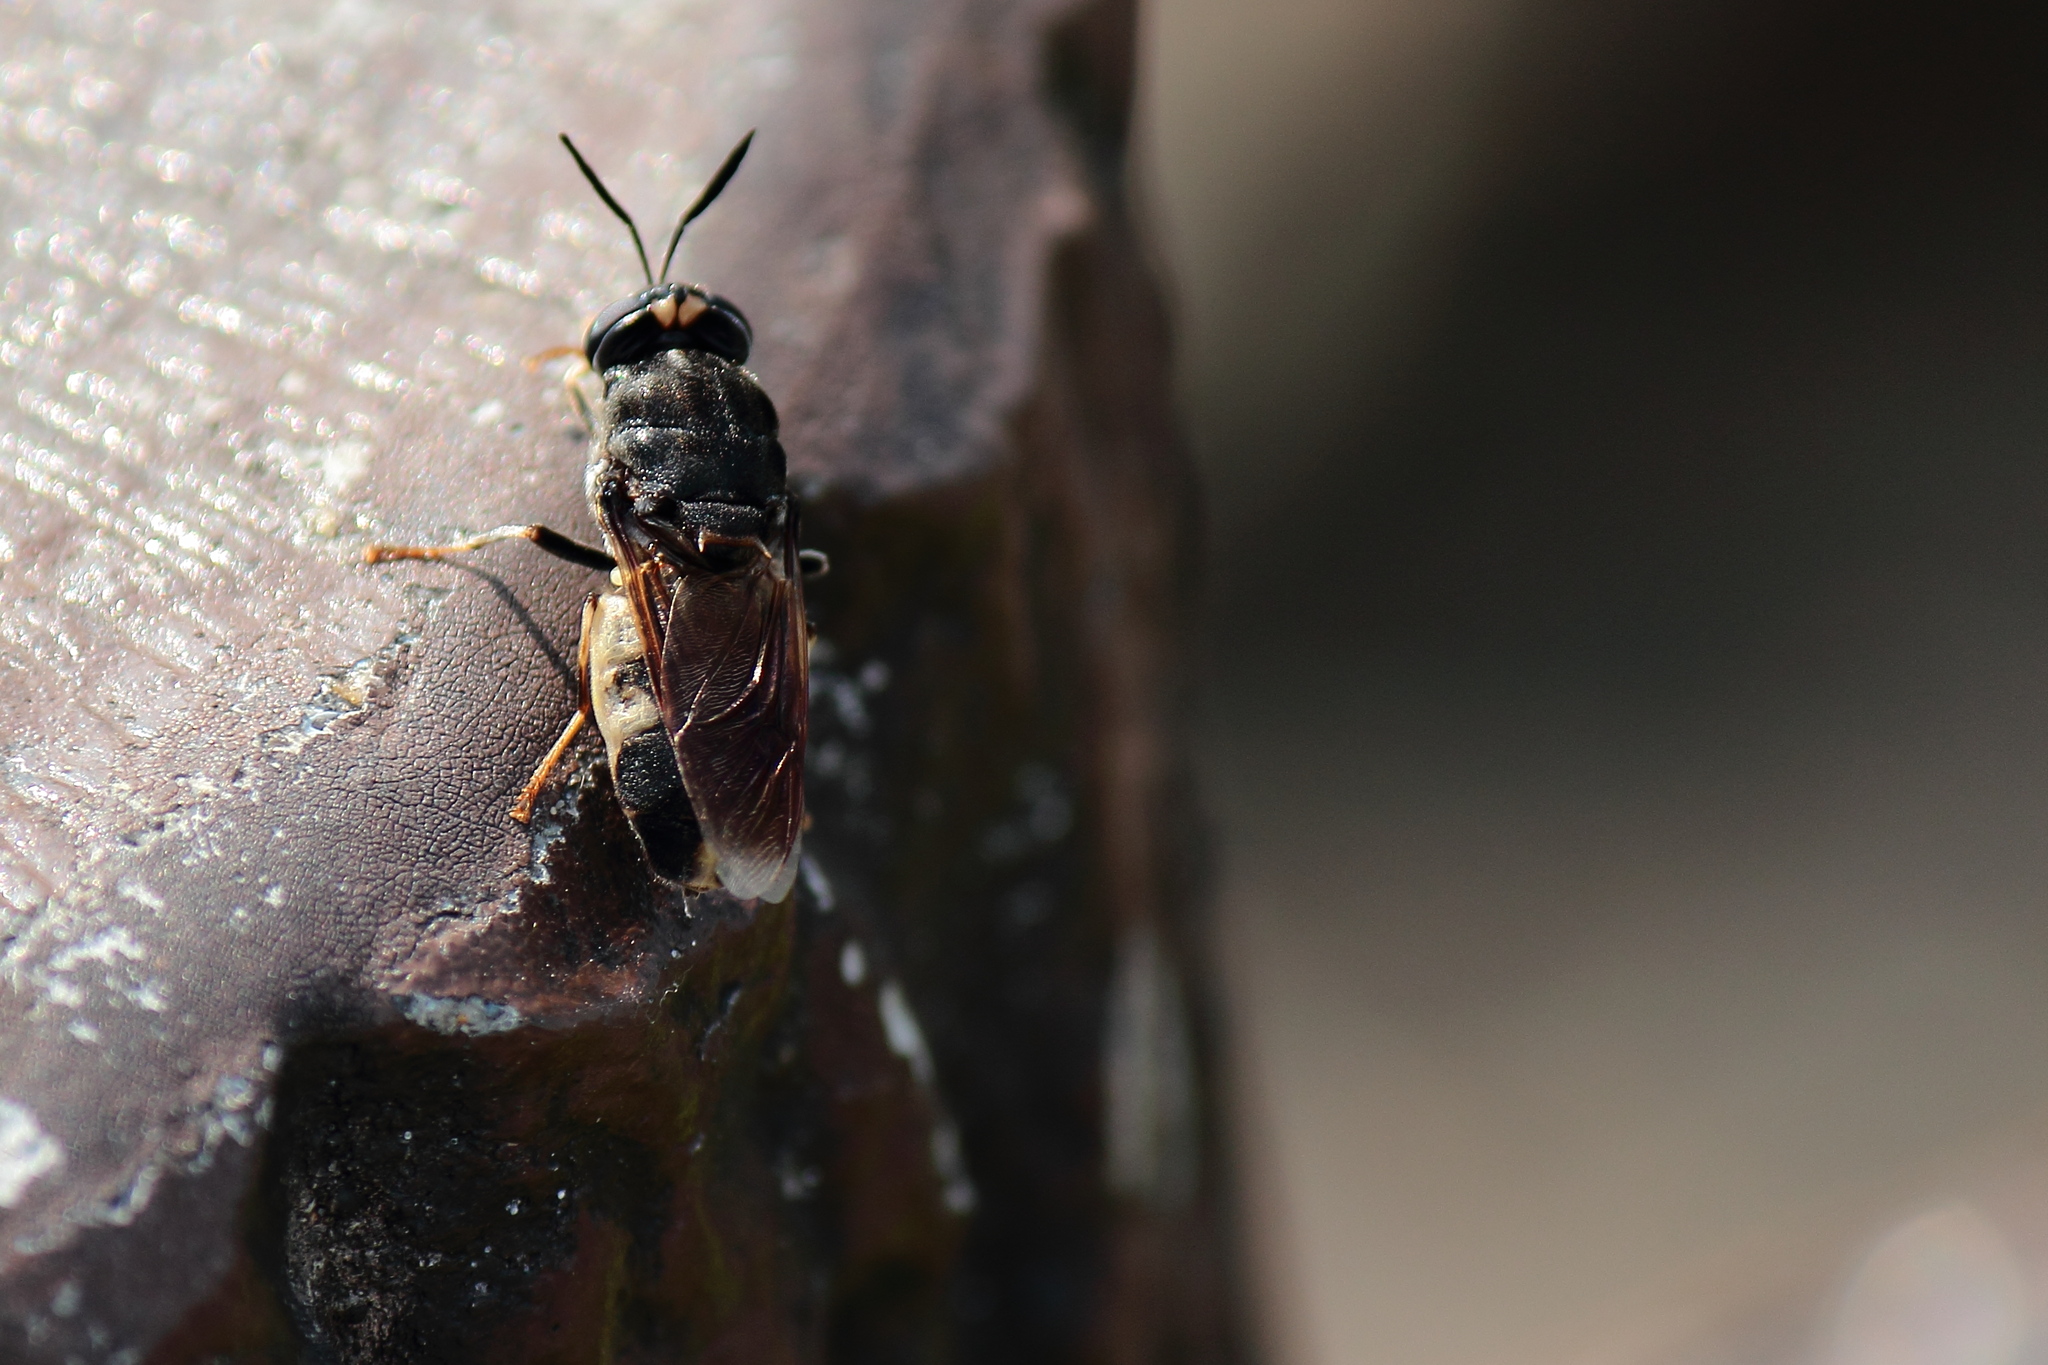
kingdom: Animalia
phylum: Arthropoda
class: Insecta
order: Diptera
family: Stratiomyidae
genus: Stratiomys
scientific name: Stratiomys japonica
